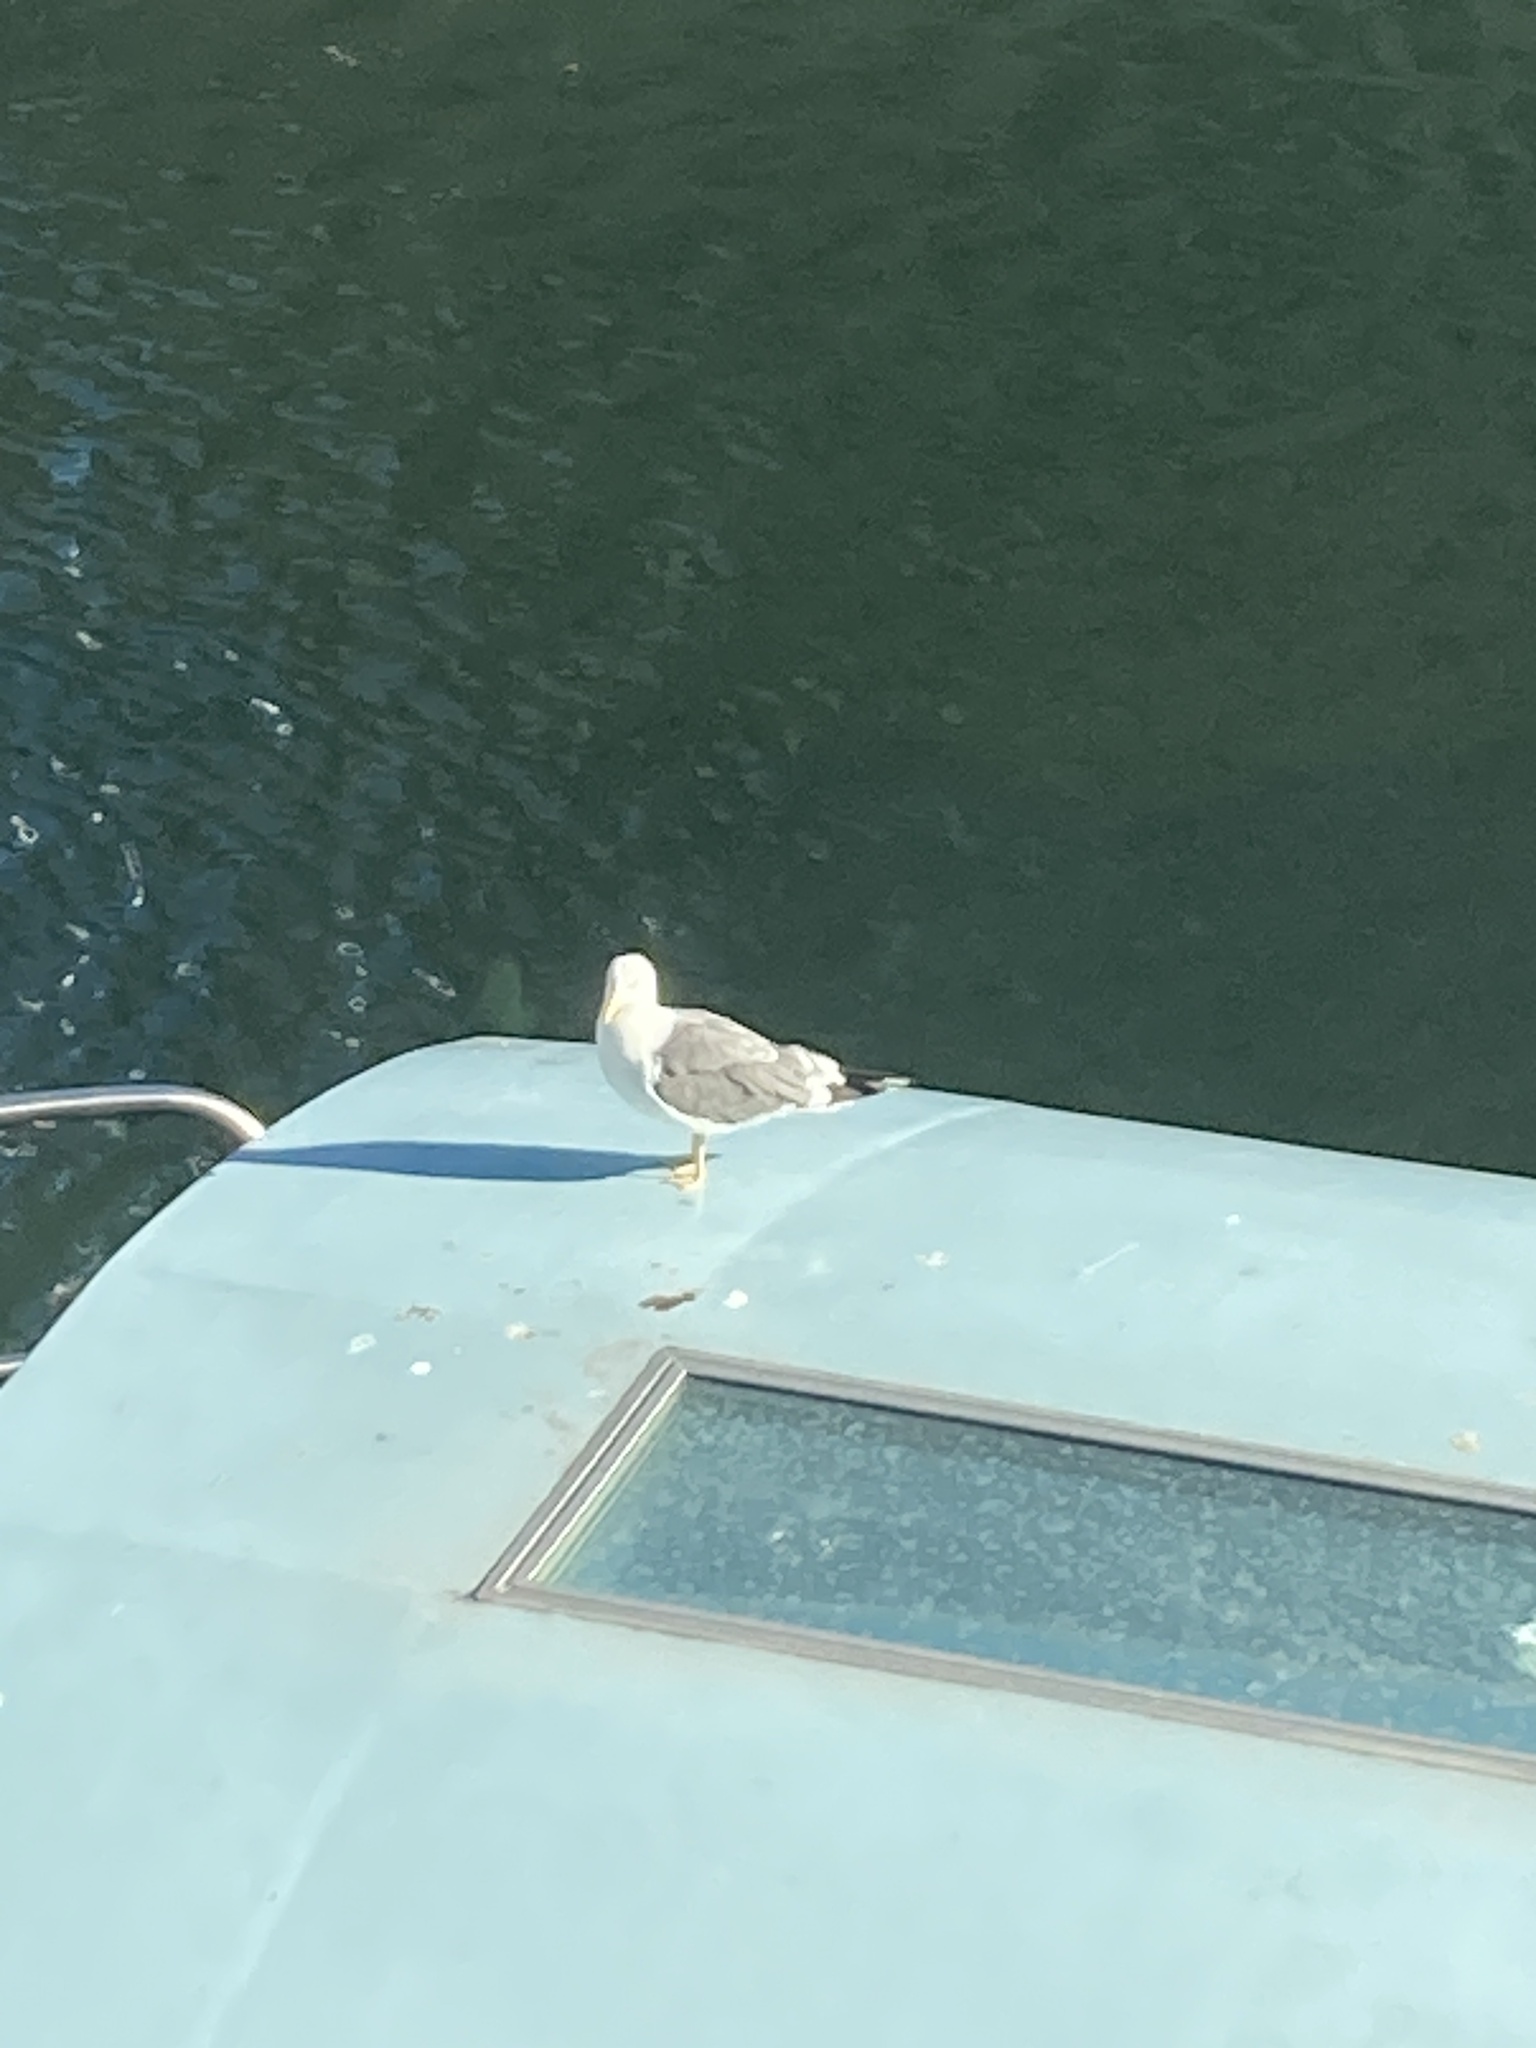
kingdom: Animalia
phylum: Chordata
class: Aves
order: Charadriiformes
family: Laridae
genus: Larus
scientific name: Larus michahellis
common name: Yellow-legged gull
